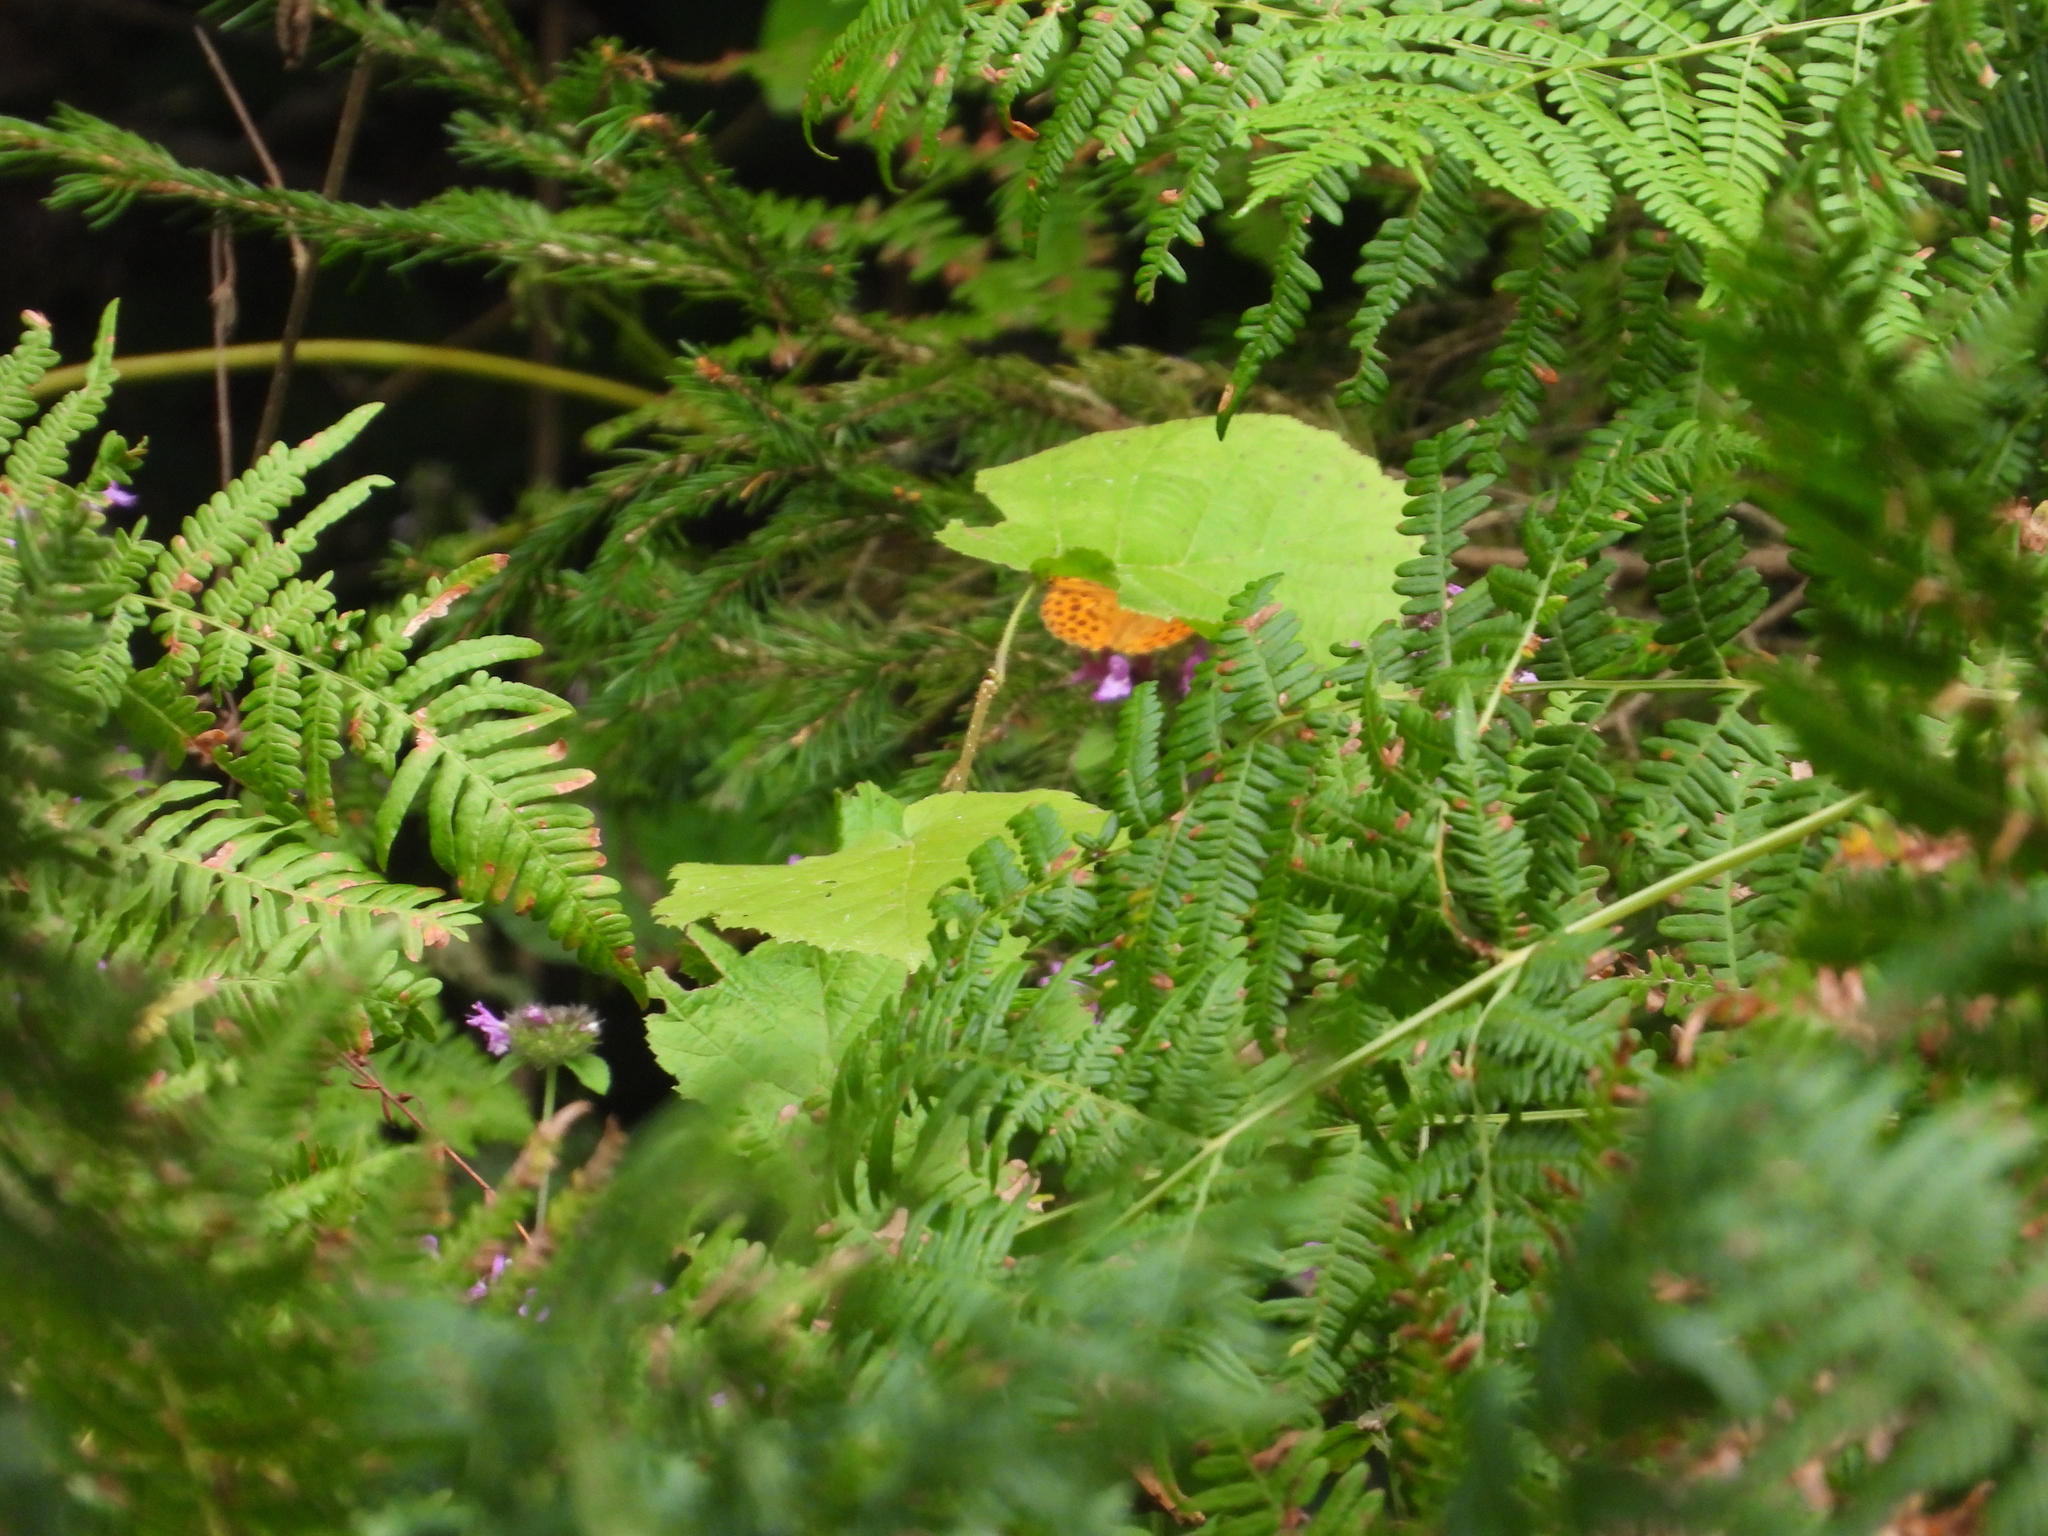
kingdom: Animalia
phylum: Arthropoda
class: Insecta
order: Lepidoptera
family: Nymphalidae
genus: Argynnis
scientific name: Argynnis paphia
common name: Silver-washed fritillary
